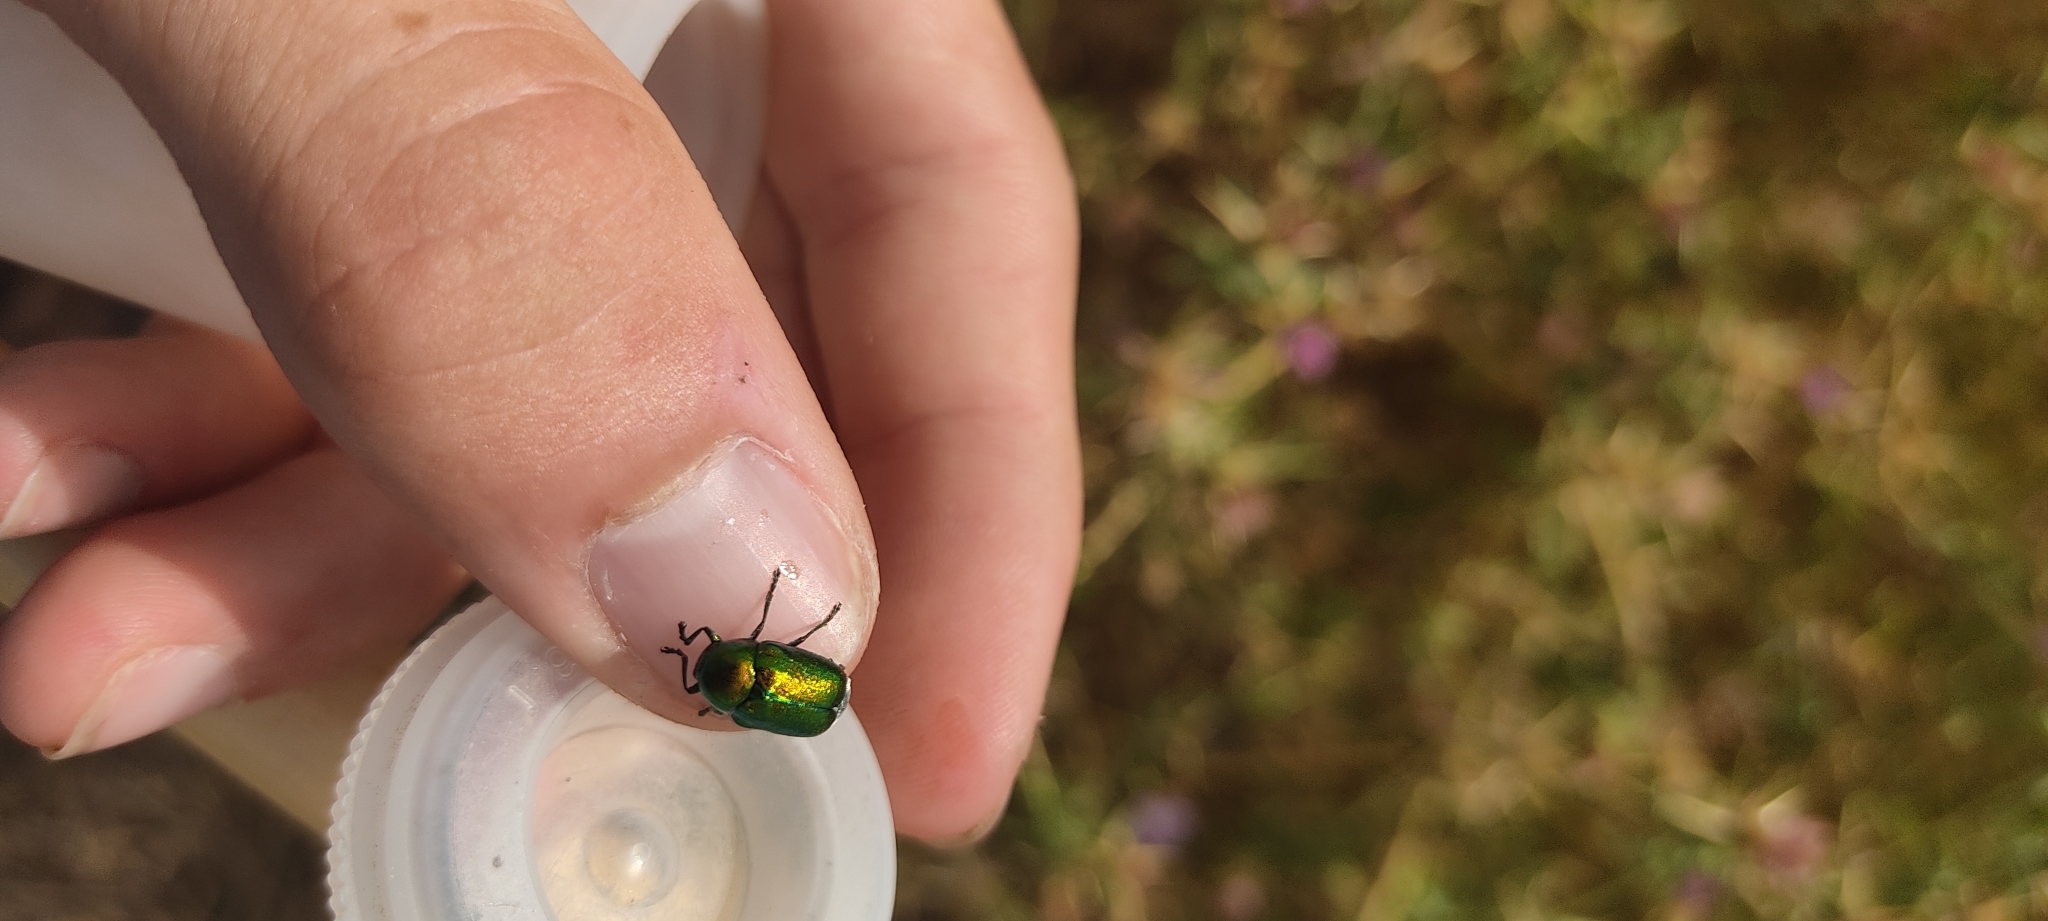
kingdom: Animalia
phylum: Arthropoda
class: Insecta
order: Coleoptera
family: Chrysomelidae
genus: Cryptocephalus
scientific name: Cryptocephalus
